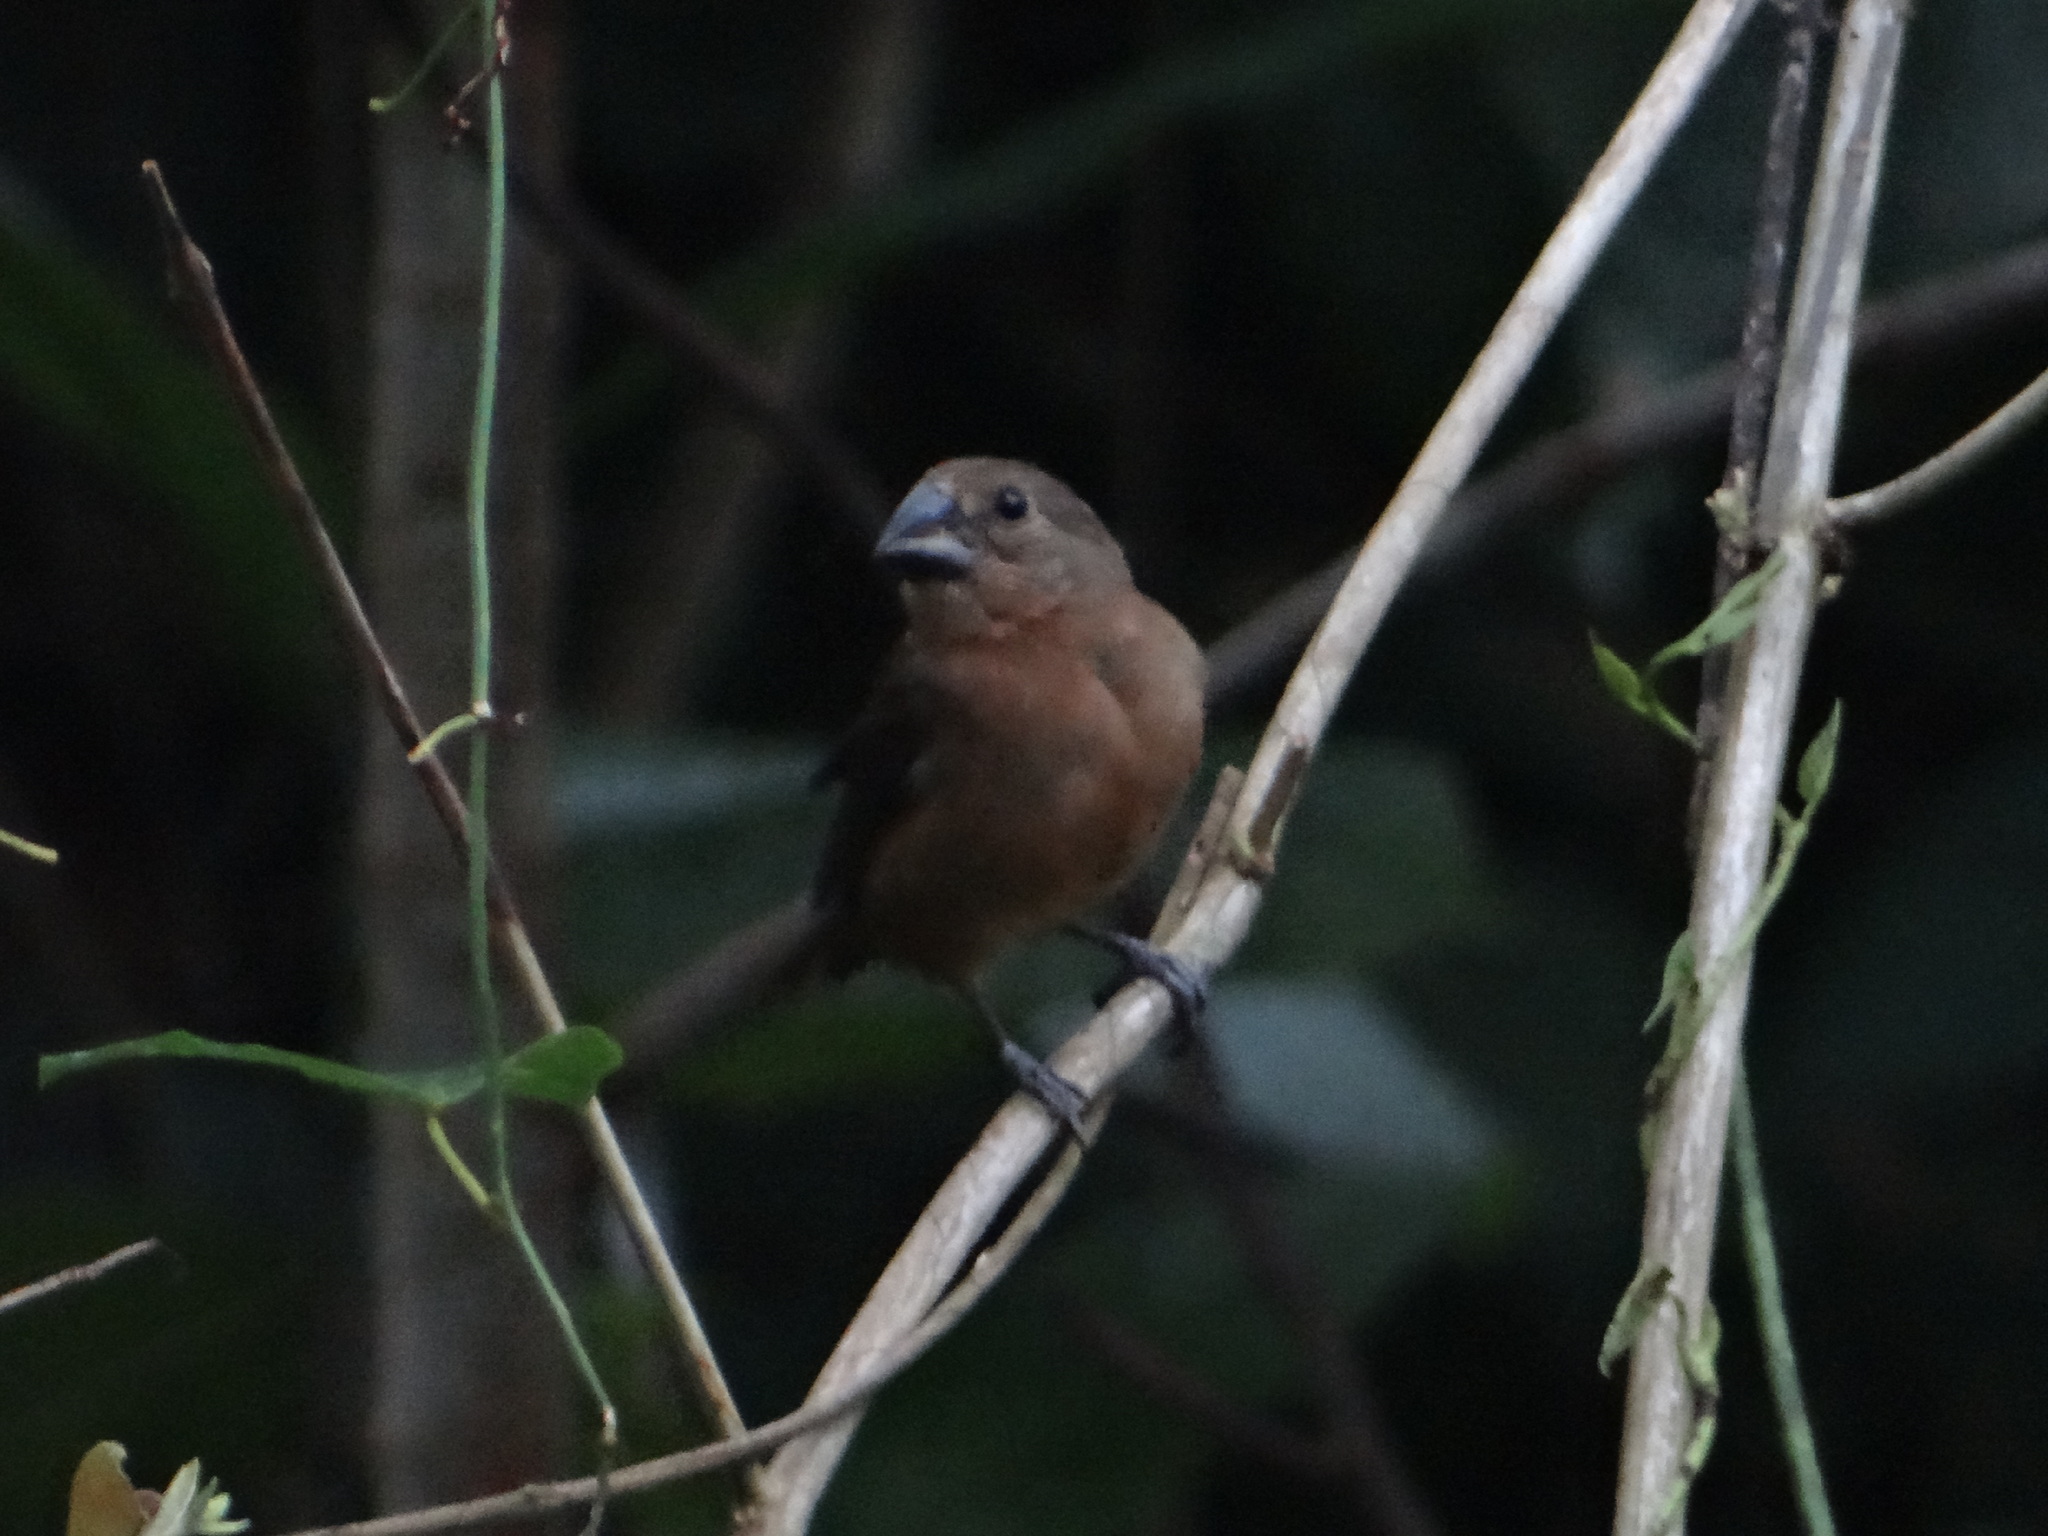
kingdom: Animalia
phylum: Chordata
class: Aves
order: Passeriformes
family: Thraupidae
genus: Sporophila
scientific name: Sporophila angolensis
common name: Chestnut-bellied seed-finch
